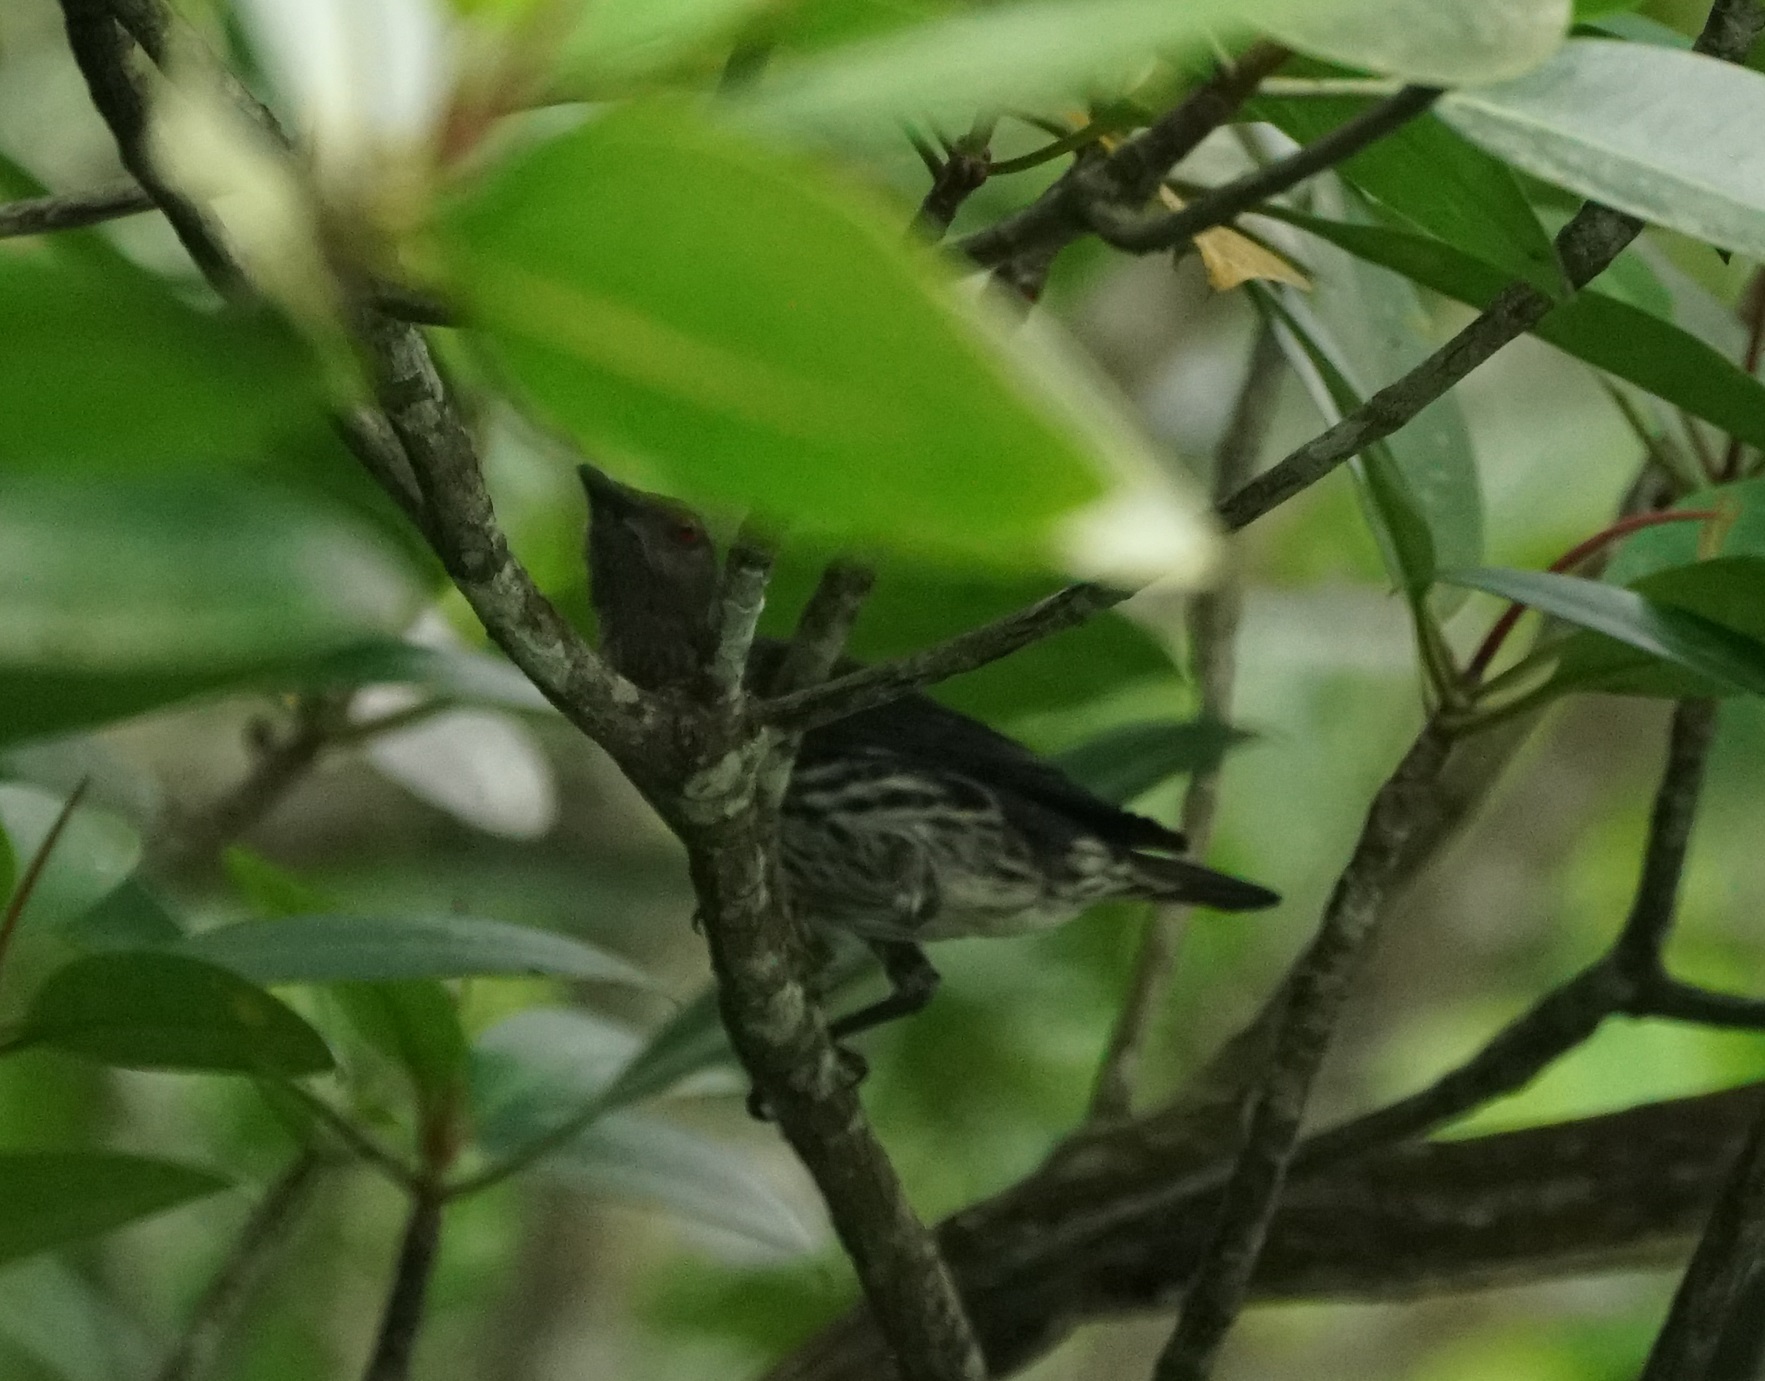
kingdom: Animalia
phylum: Chordata
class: Aves
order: Passeriformes
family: Sturnidae
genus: Aplonis
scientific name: Aplonis panayensis
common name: Asian glossy starling
